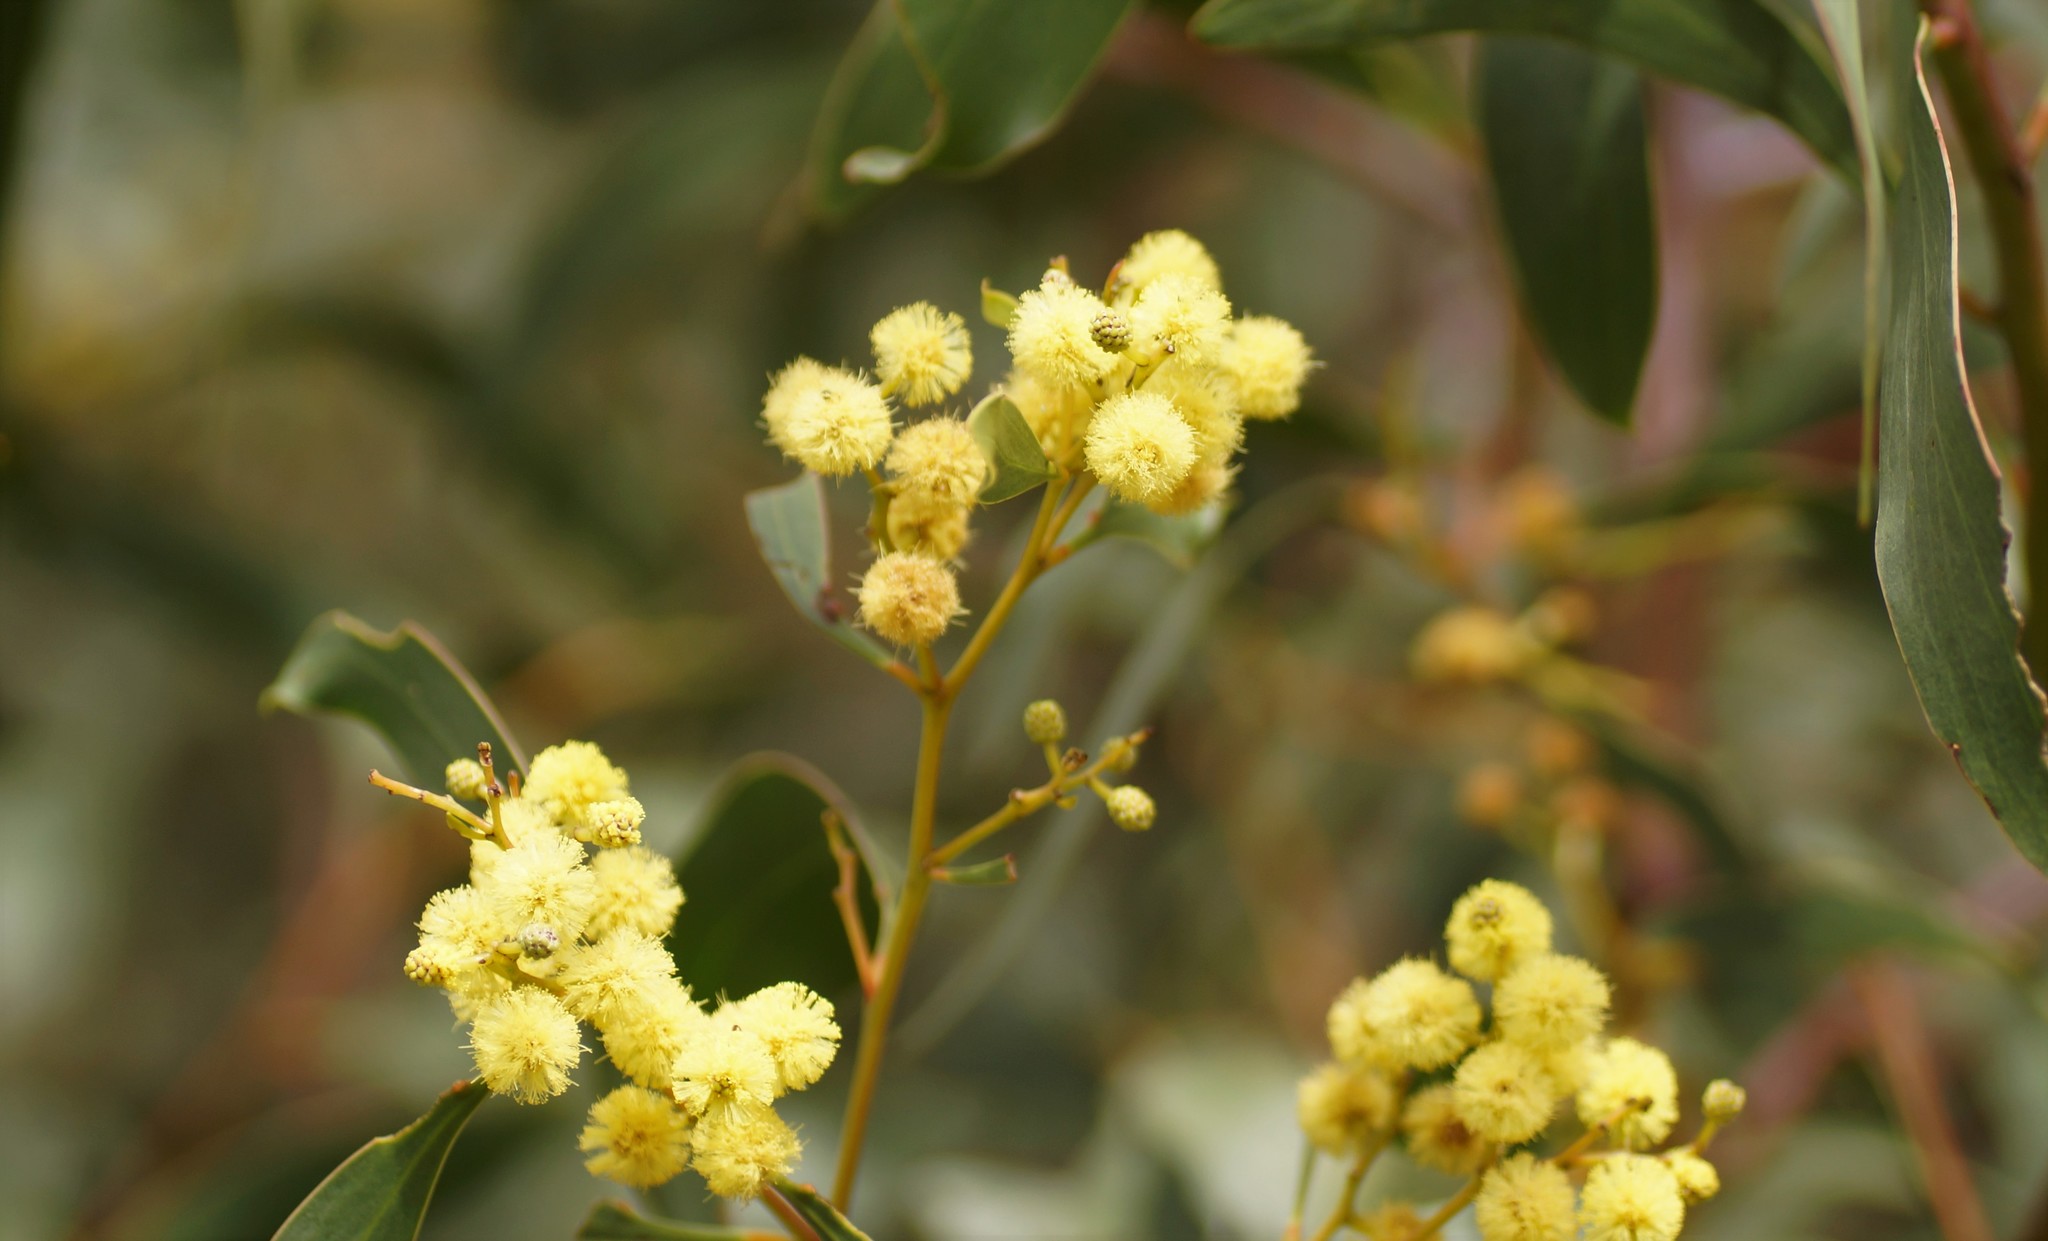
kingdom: Plantae
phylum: Tracheophyta
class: Magnoliopsida
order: Fabales
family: Fabaceae
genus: Acacia
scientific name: Acacia pycnantha
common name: Golden wattle
